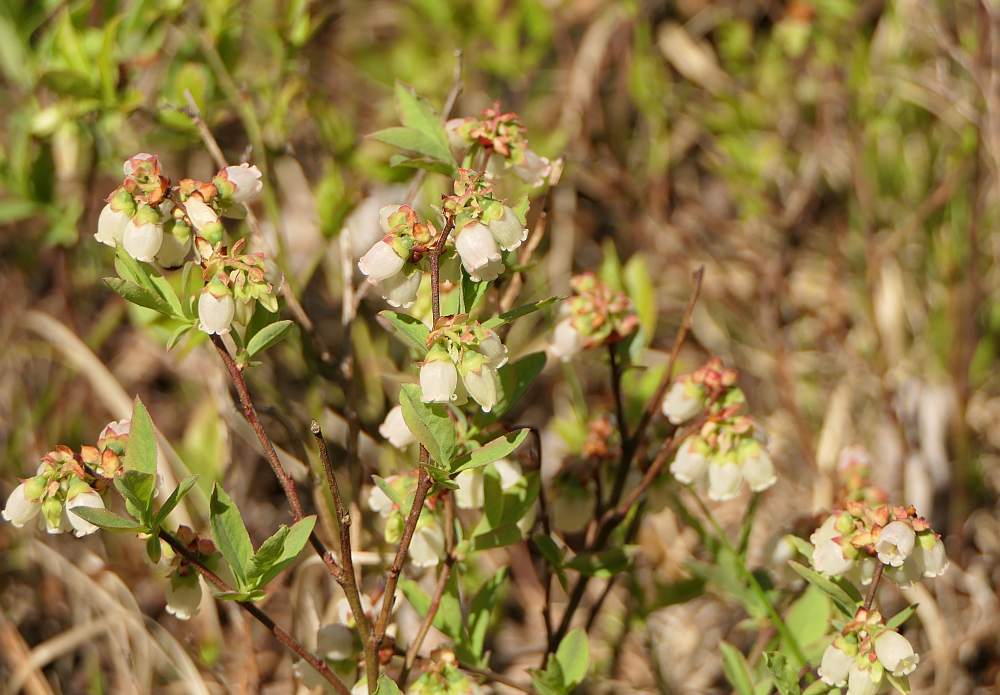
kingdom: Plantae
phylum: Tracheophyta
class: Magnoliopsida
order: Ericales
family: Ericaceae
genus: Vaccinium
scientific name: Vaccinium angustifolium
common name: Early lowbush blueberry
